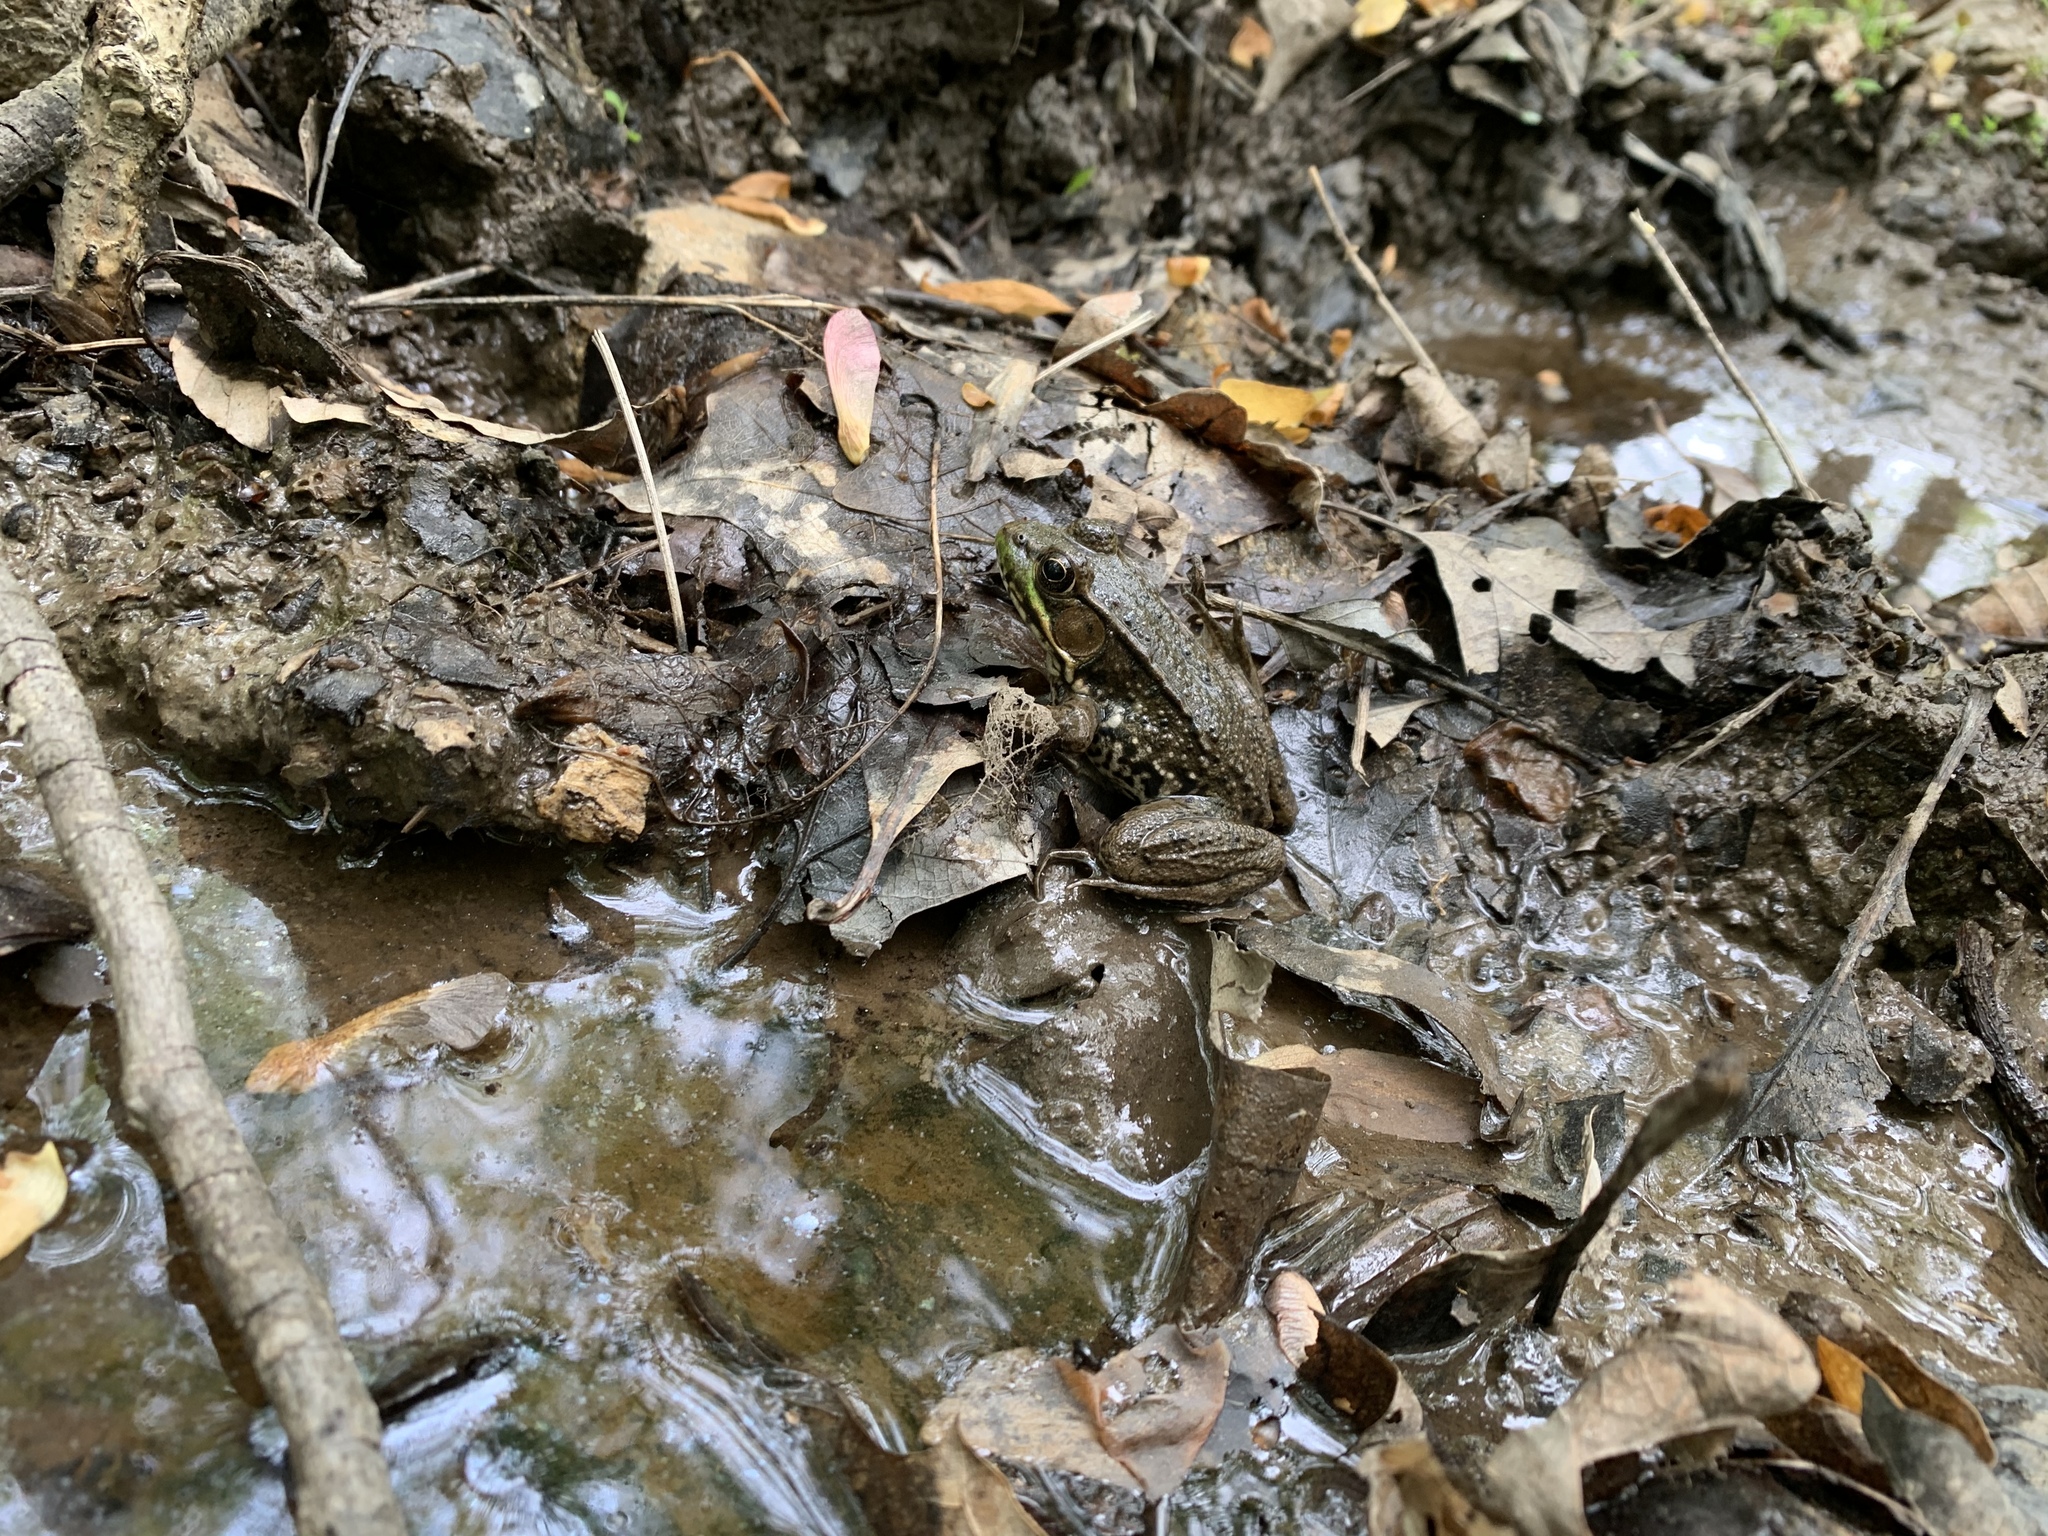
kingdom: Animalia
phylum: Chordata
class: Amphibia
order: Anura
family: Ranidae
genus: Lithobates
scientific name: Lithobates clamitans
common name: Green frog
